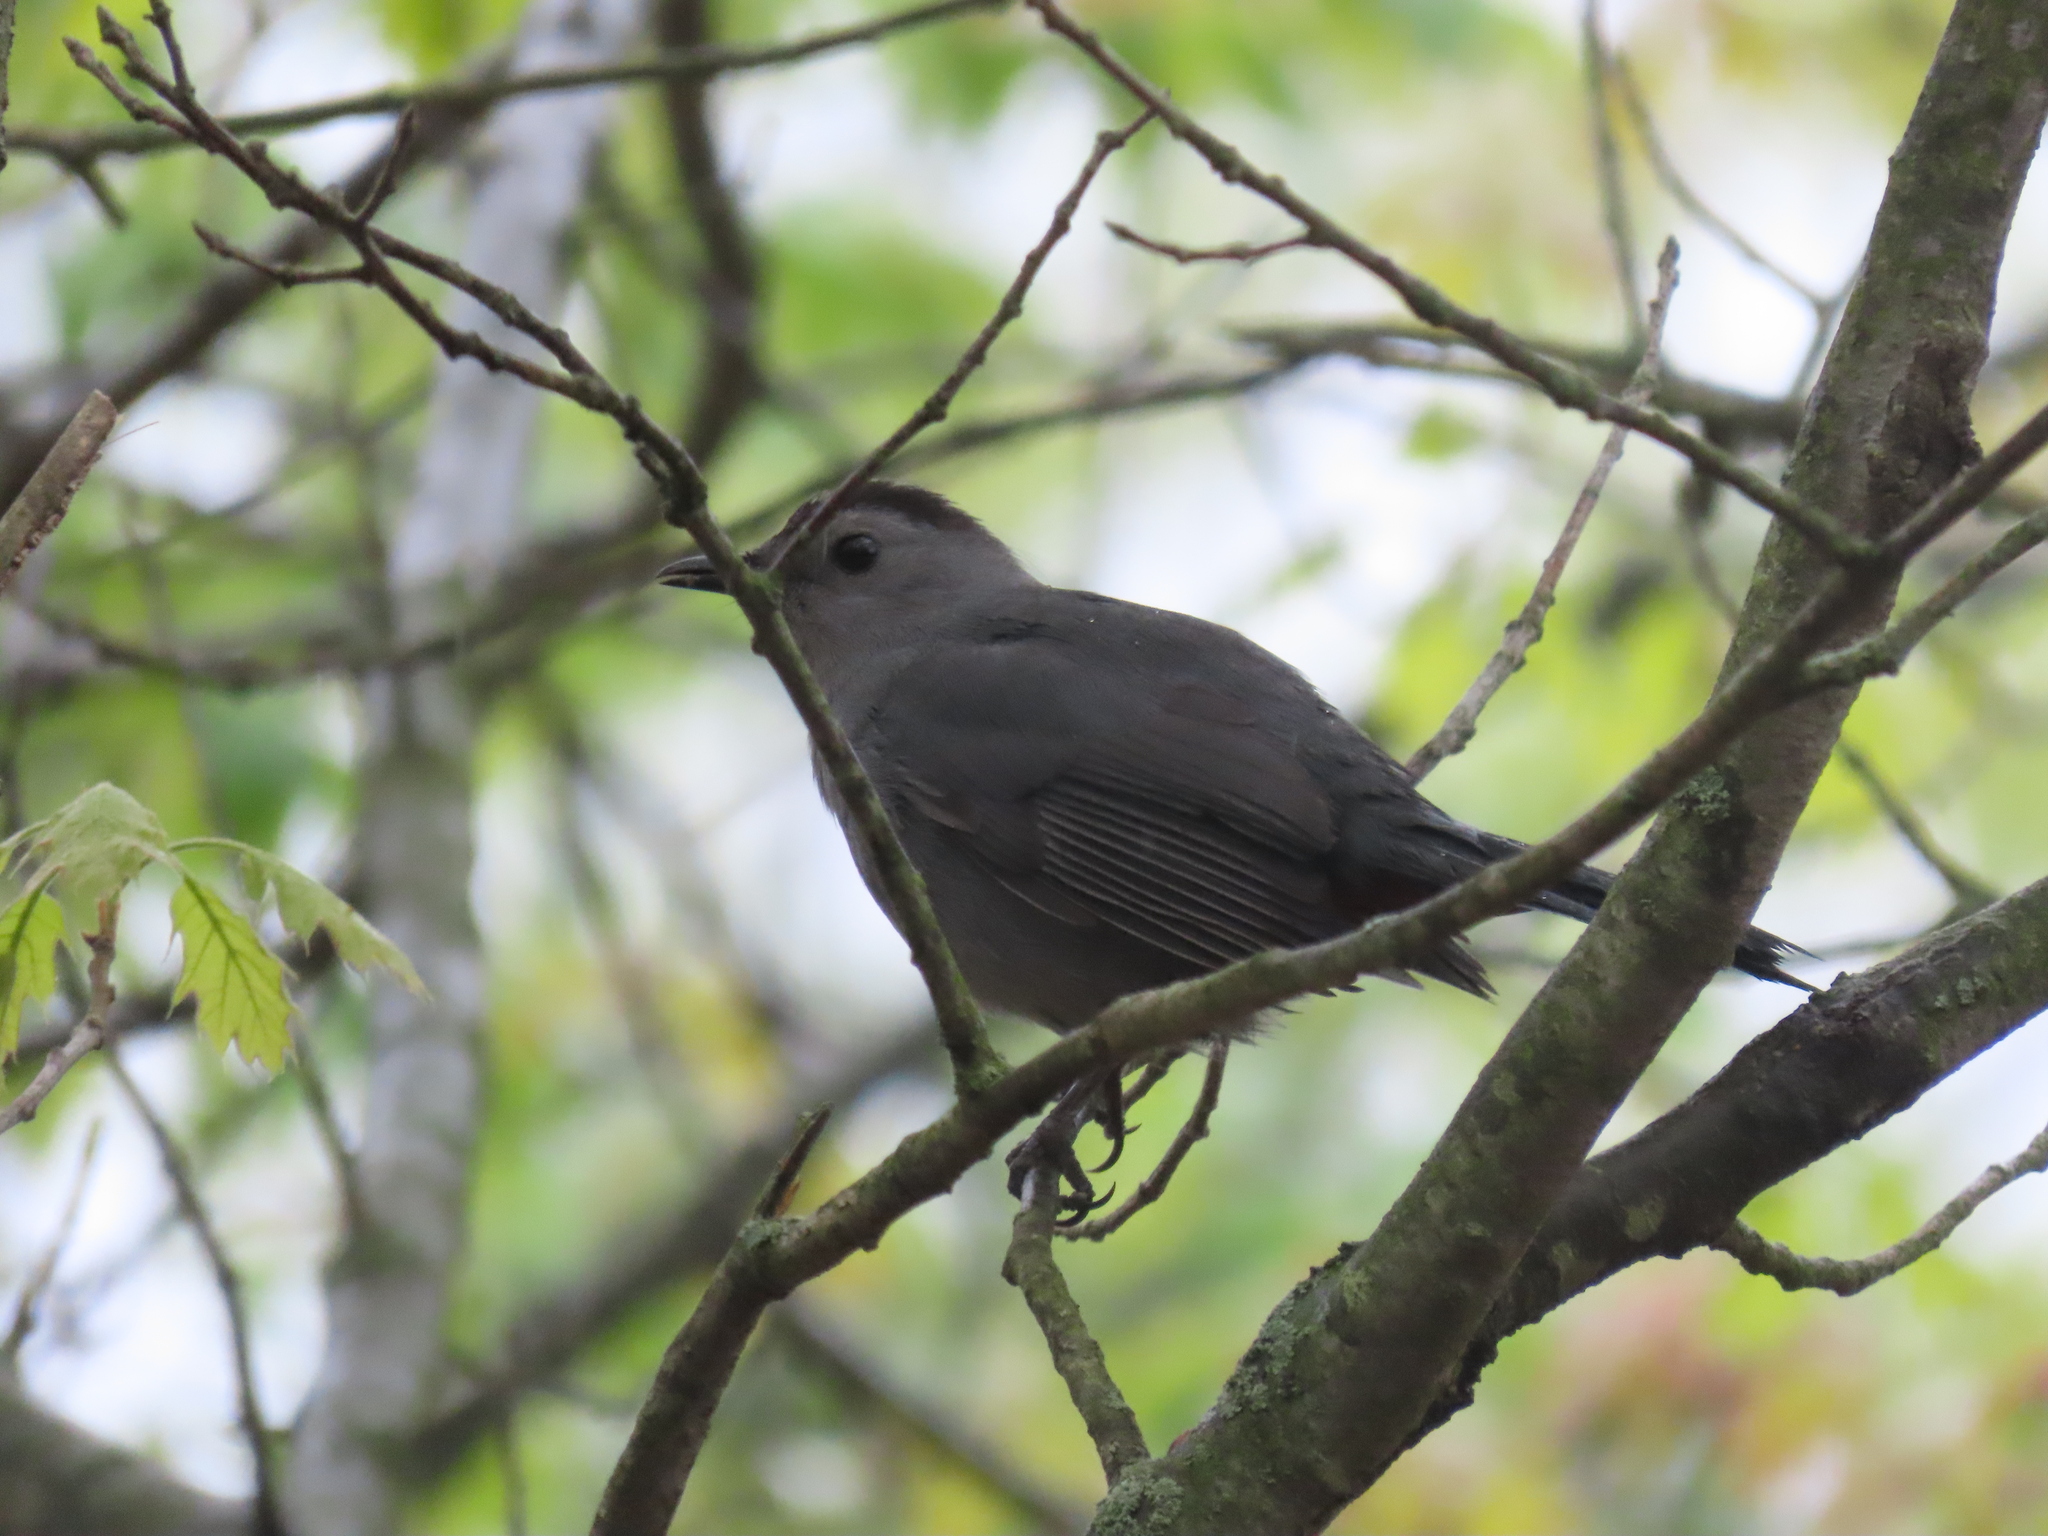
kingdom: Animalia
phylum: Chordata
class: Aves
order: Passeriformes
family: Mimidae
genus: Dumetella
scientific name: Dumetella carolinensis
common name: Gray catbird
